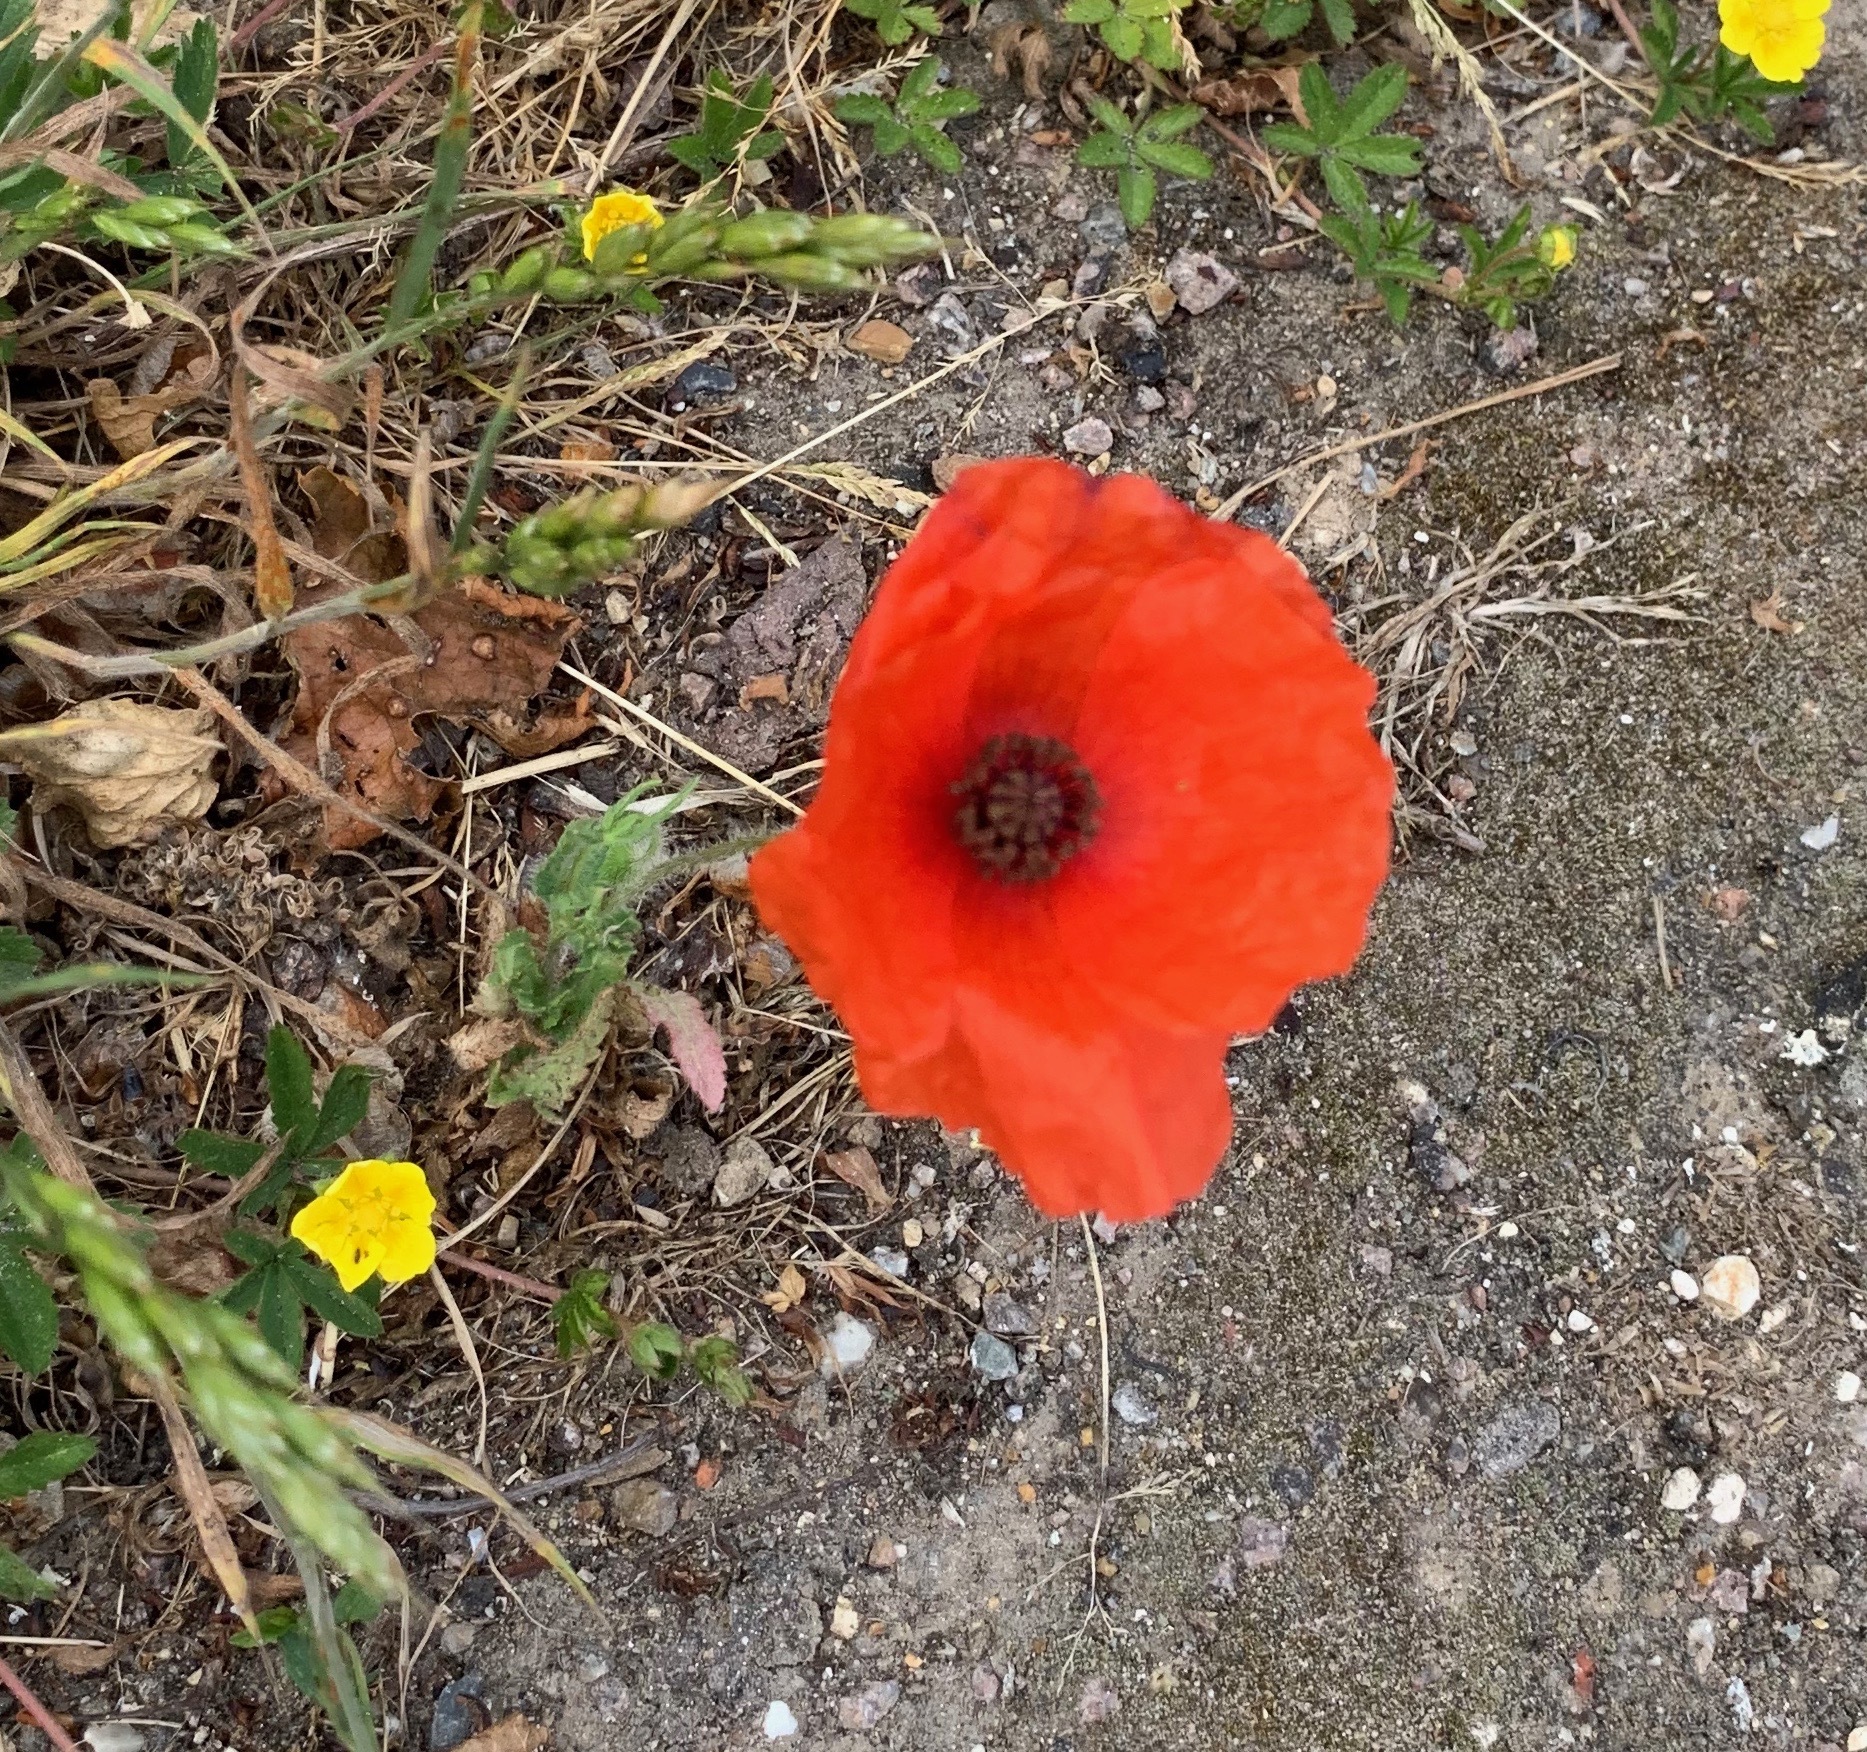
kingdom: Plantae
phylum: Tracheophyta
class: Magnoliopsida
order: Ranunculales
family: Papaveraceae
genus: Papaver
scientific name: Papaver rhoeas
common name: Corn poppy
